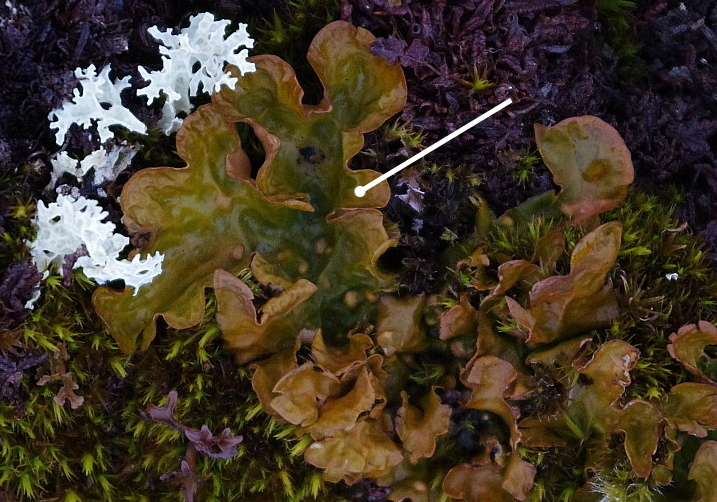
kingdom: Fungi
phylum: Ascomycota
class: Lecanoromycetes
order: Peltigerales
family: Lobariaceae
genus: Lobaria
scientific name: Lobaria linita
